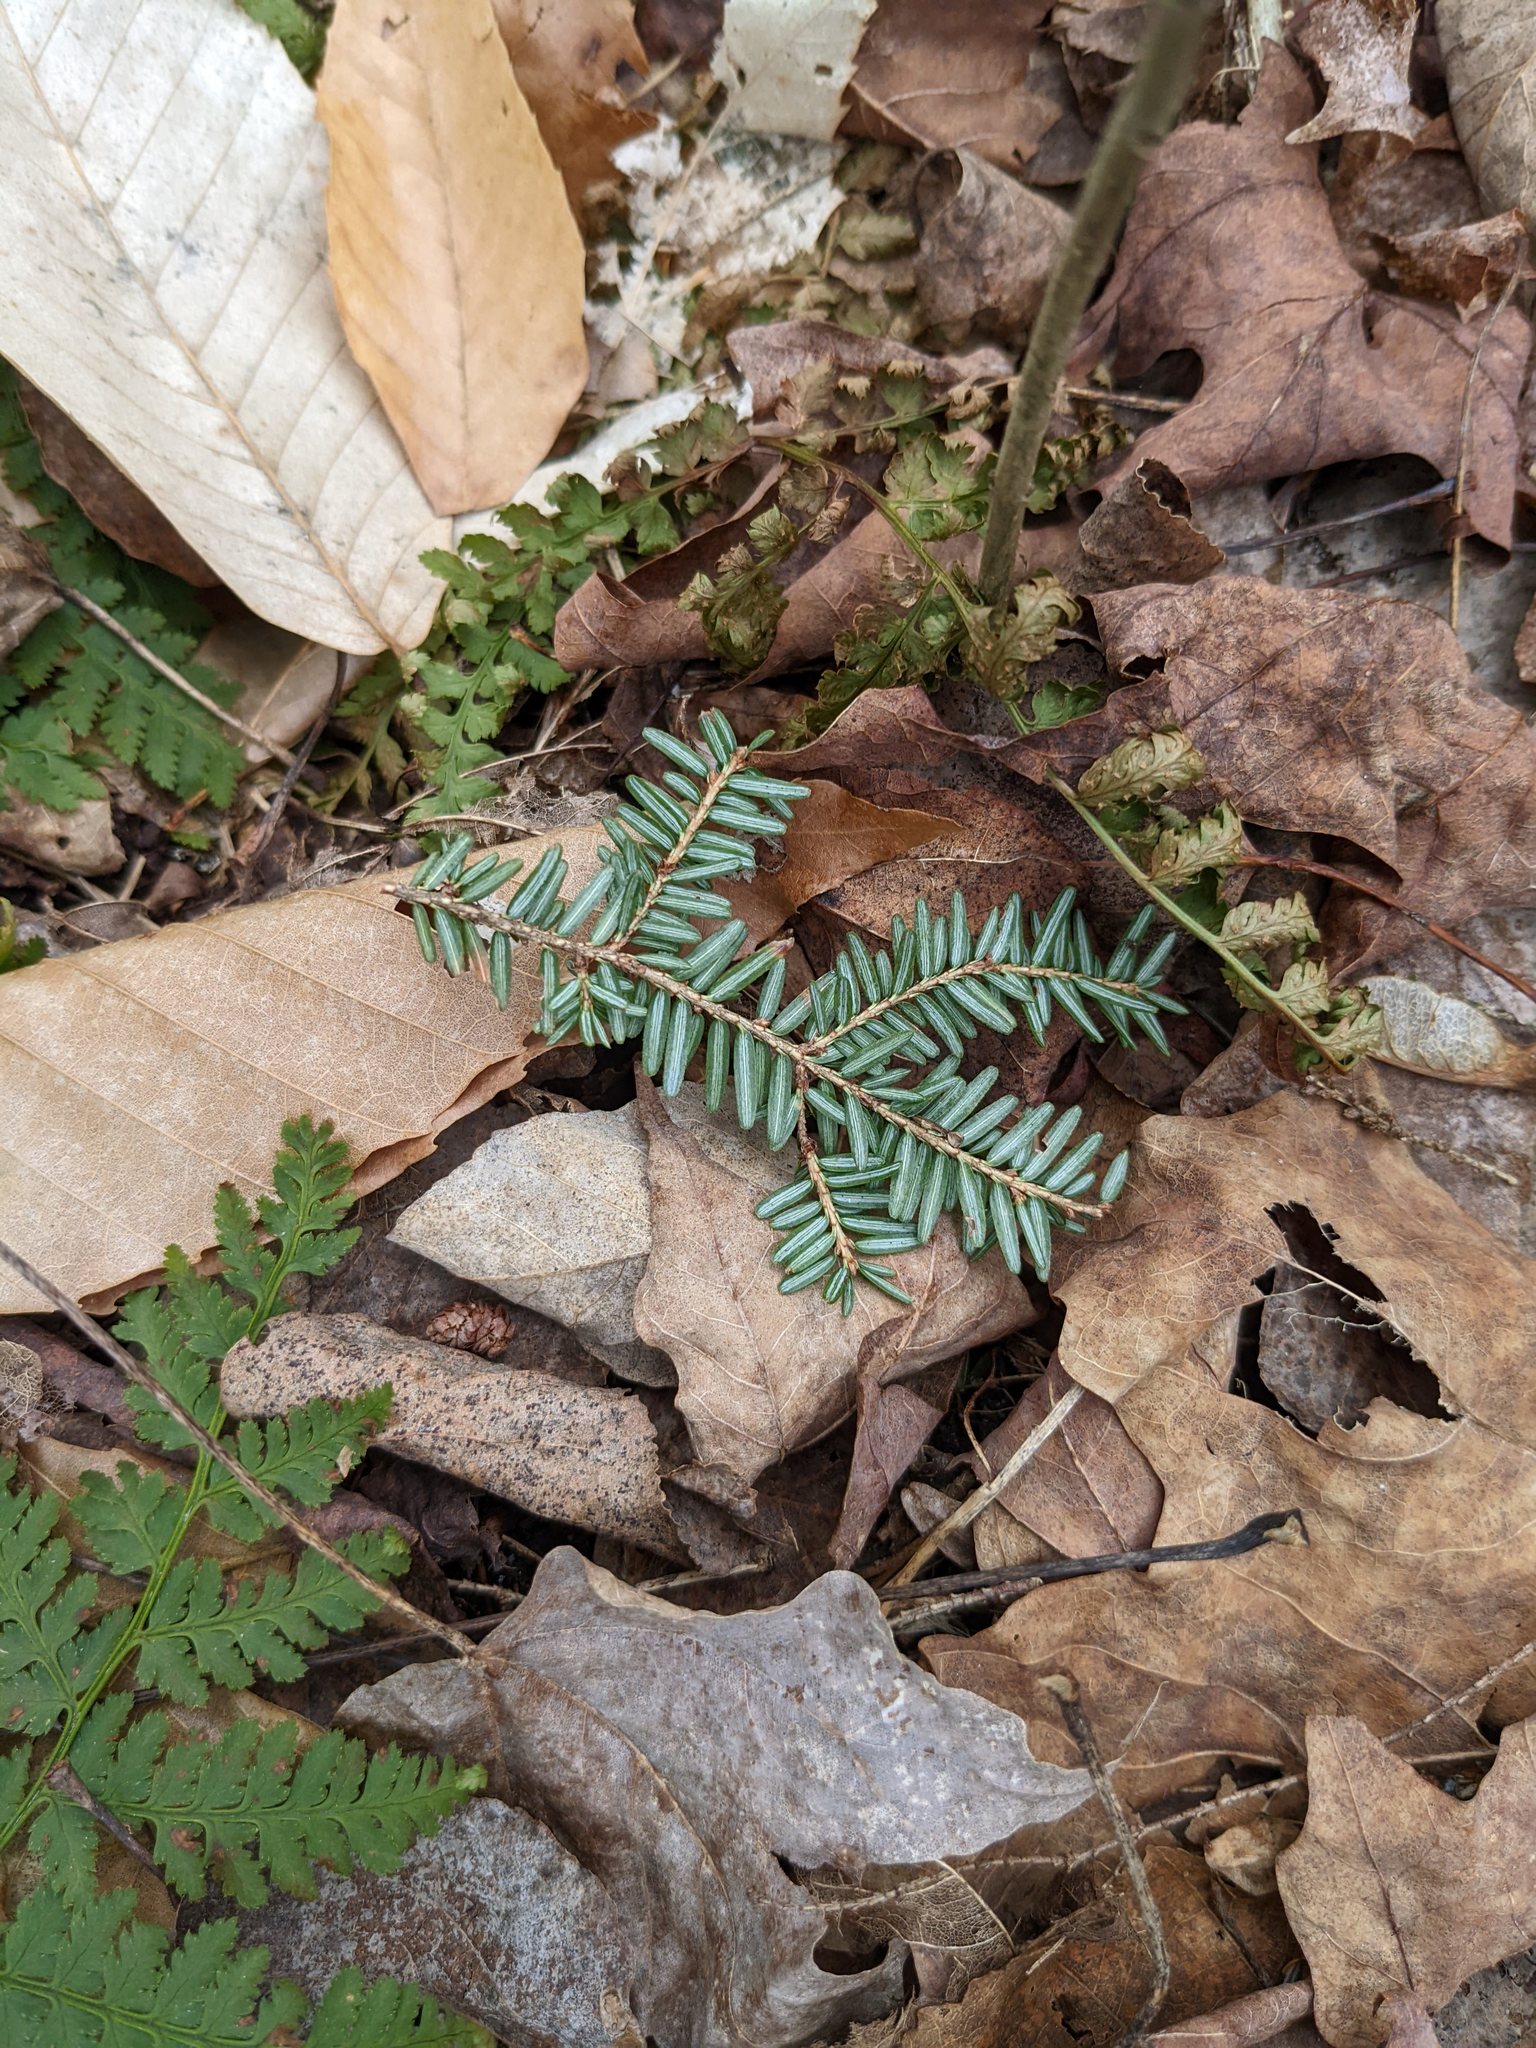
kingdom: Plantae
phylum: Tracheophyta
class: Pinopsida
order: Pinales
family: Pinaceae
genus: Tsuga
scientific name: Tsuga canadensis
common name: Eastern hemlock
